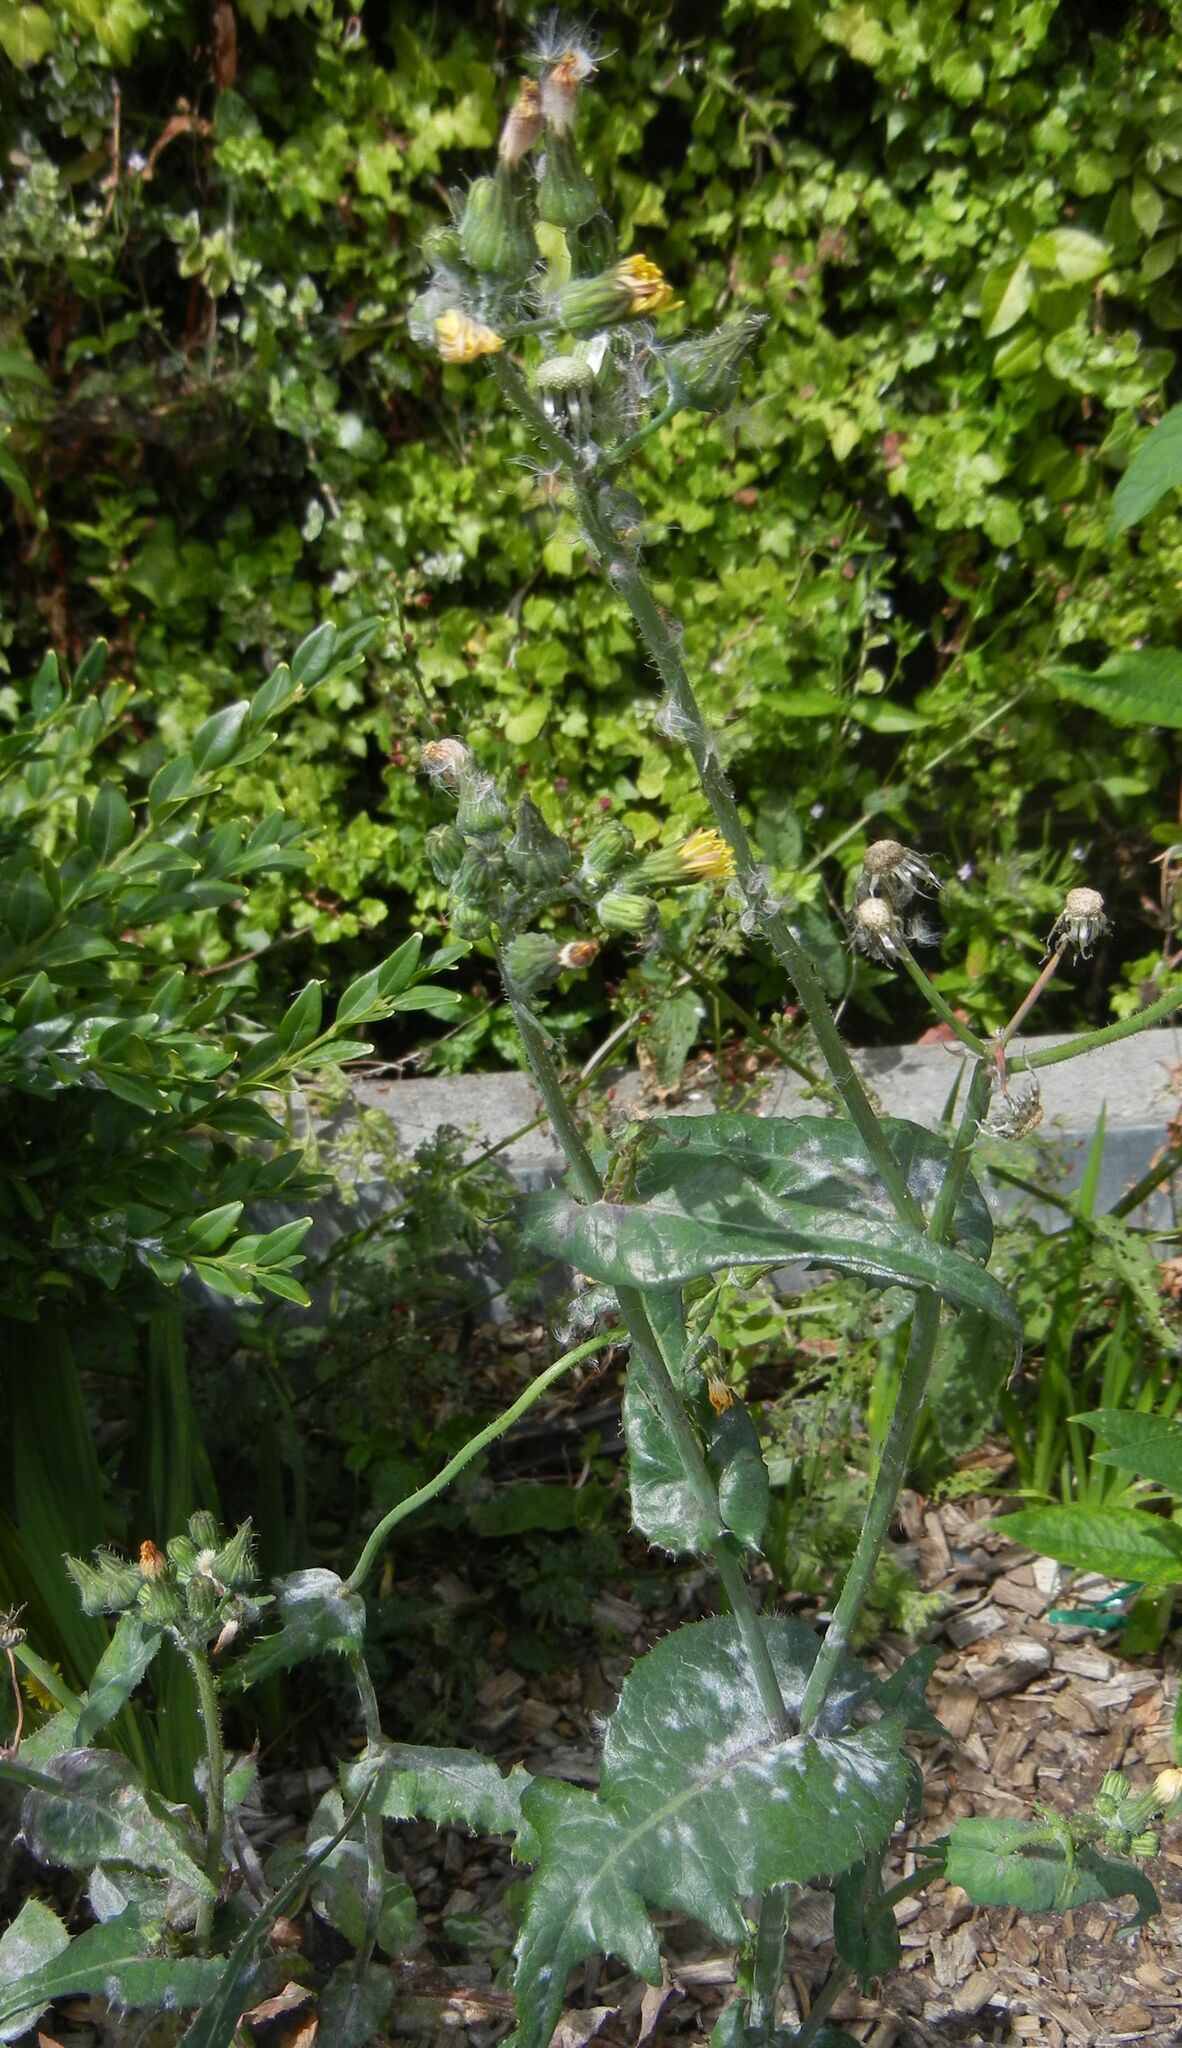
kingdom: Plantae
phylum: Tracheophyta
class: Magnoliopsida
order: Asterales
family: Asteraceae
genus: Sonchus
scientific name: Sonchus oleraceus
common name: Common sowthistle
